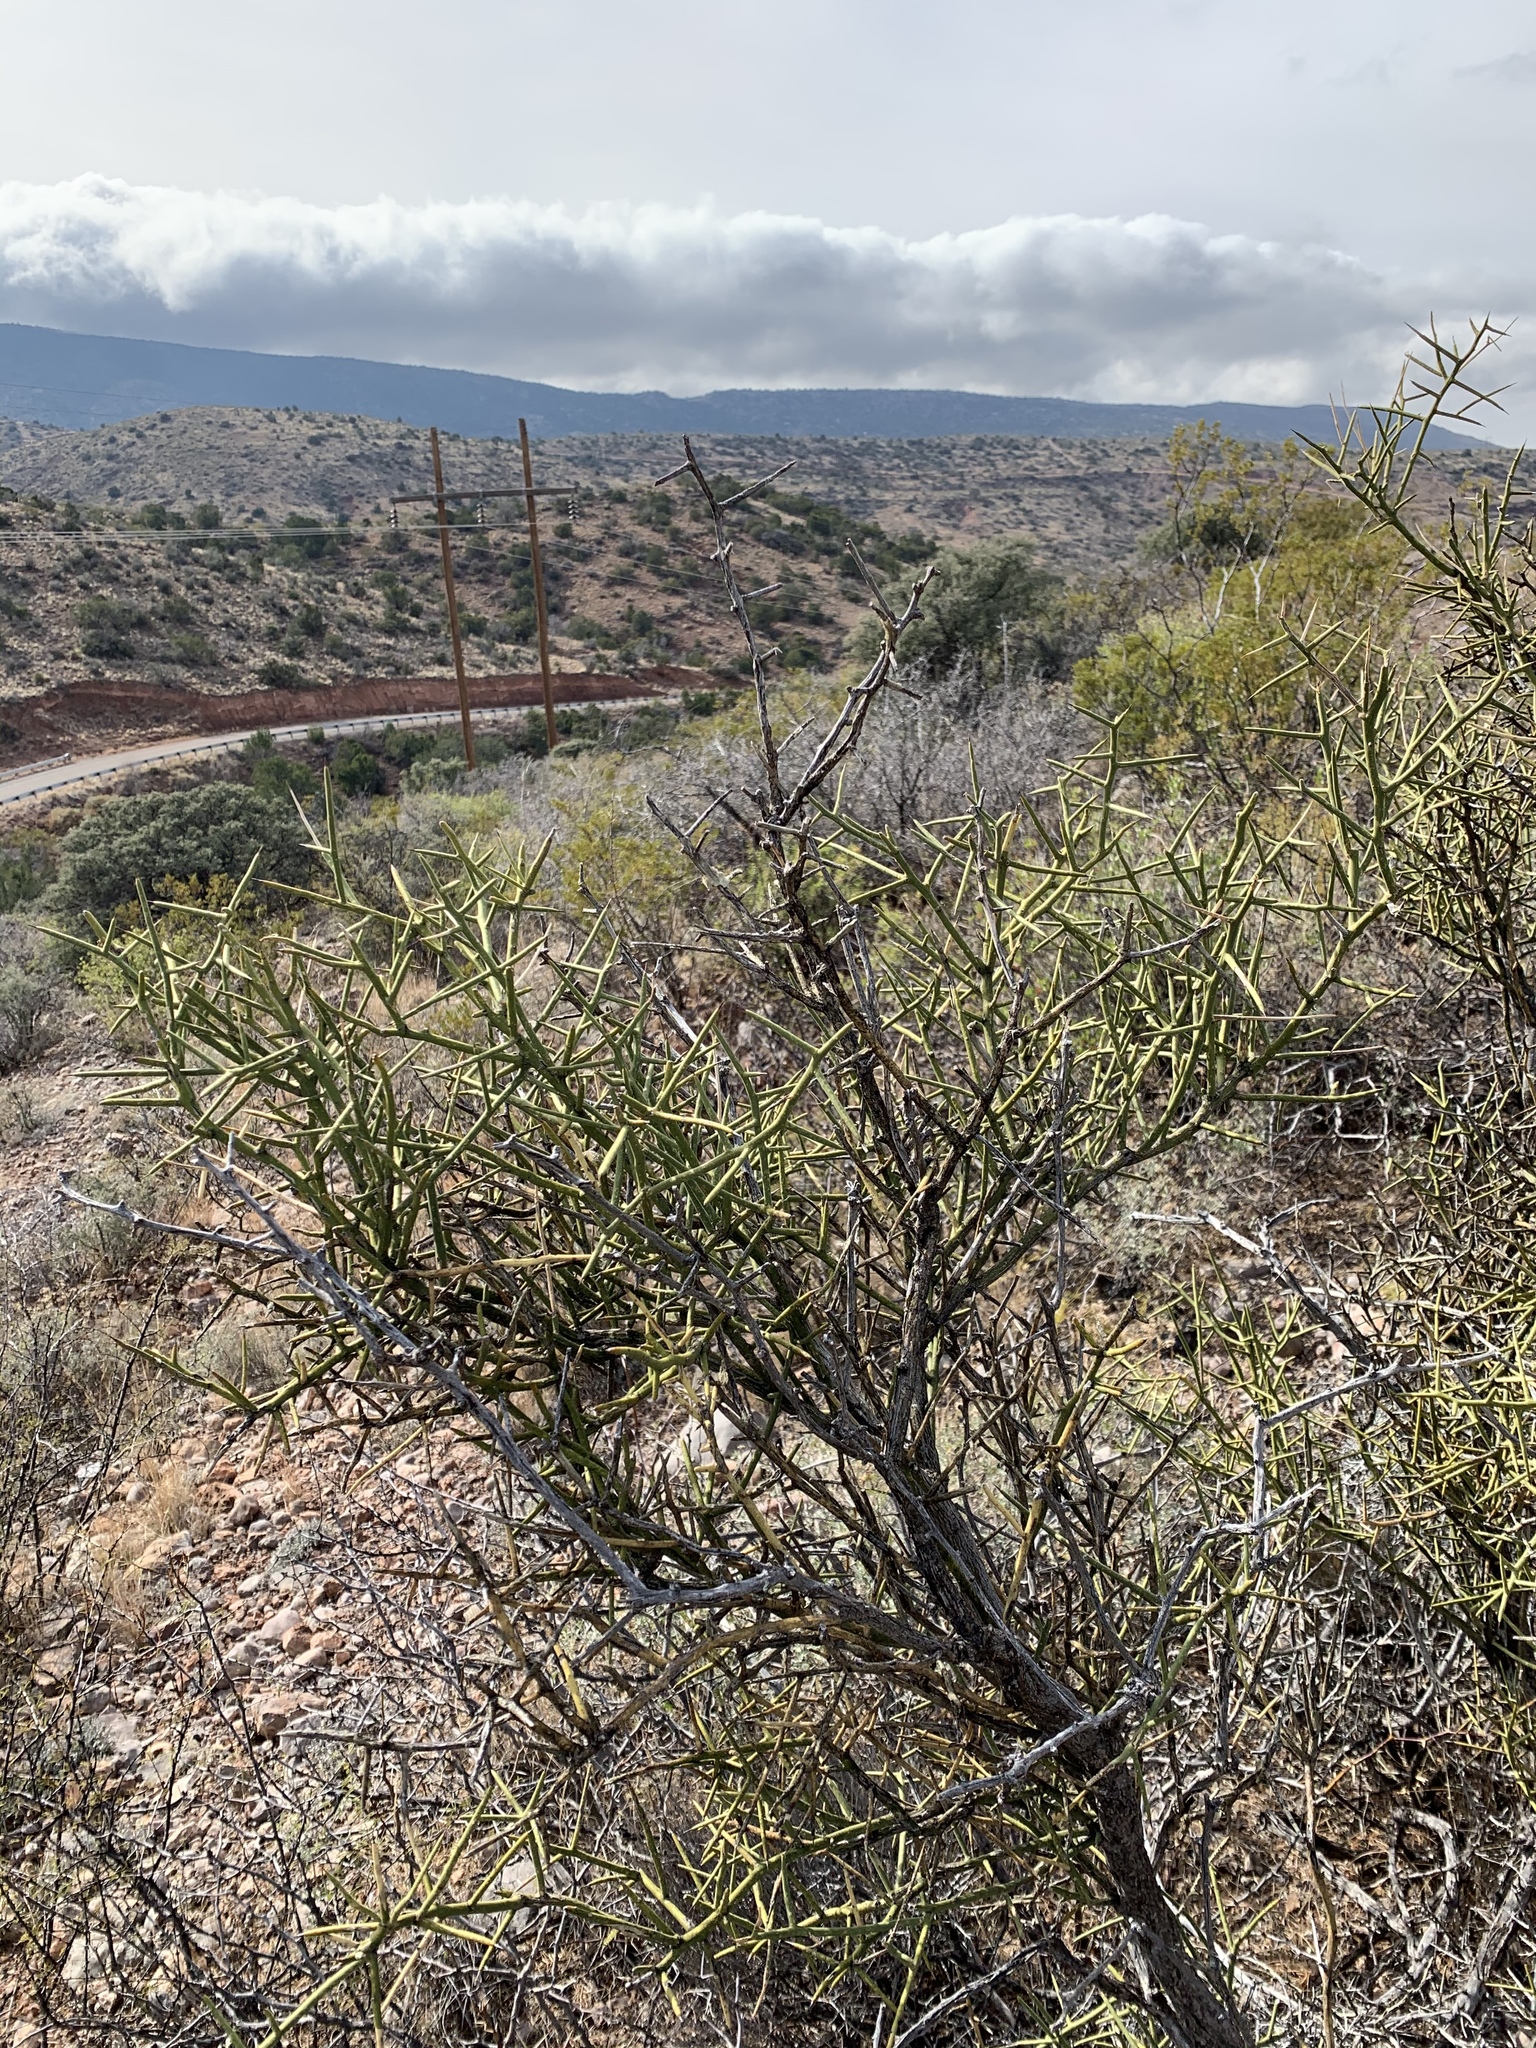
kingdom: Plantae
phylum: Tracheophyta
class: Magnoliopsida
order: Brassicales
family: Koeberliniaceae
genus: Koeberlinia
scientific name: Koeberlinia spinosa
